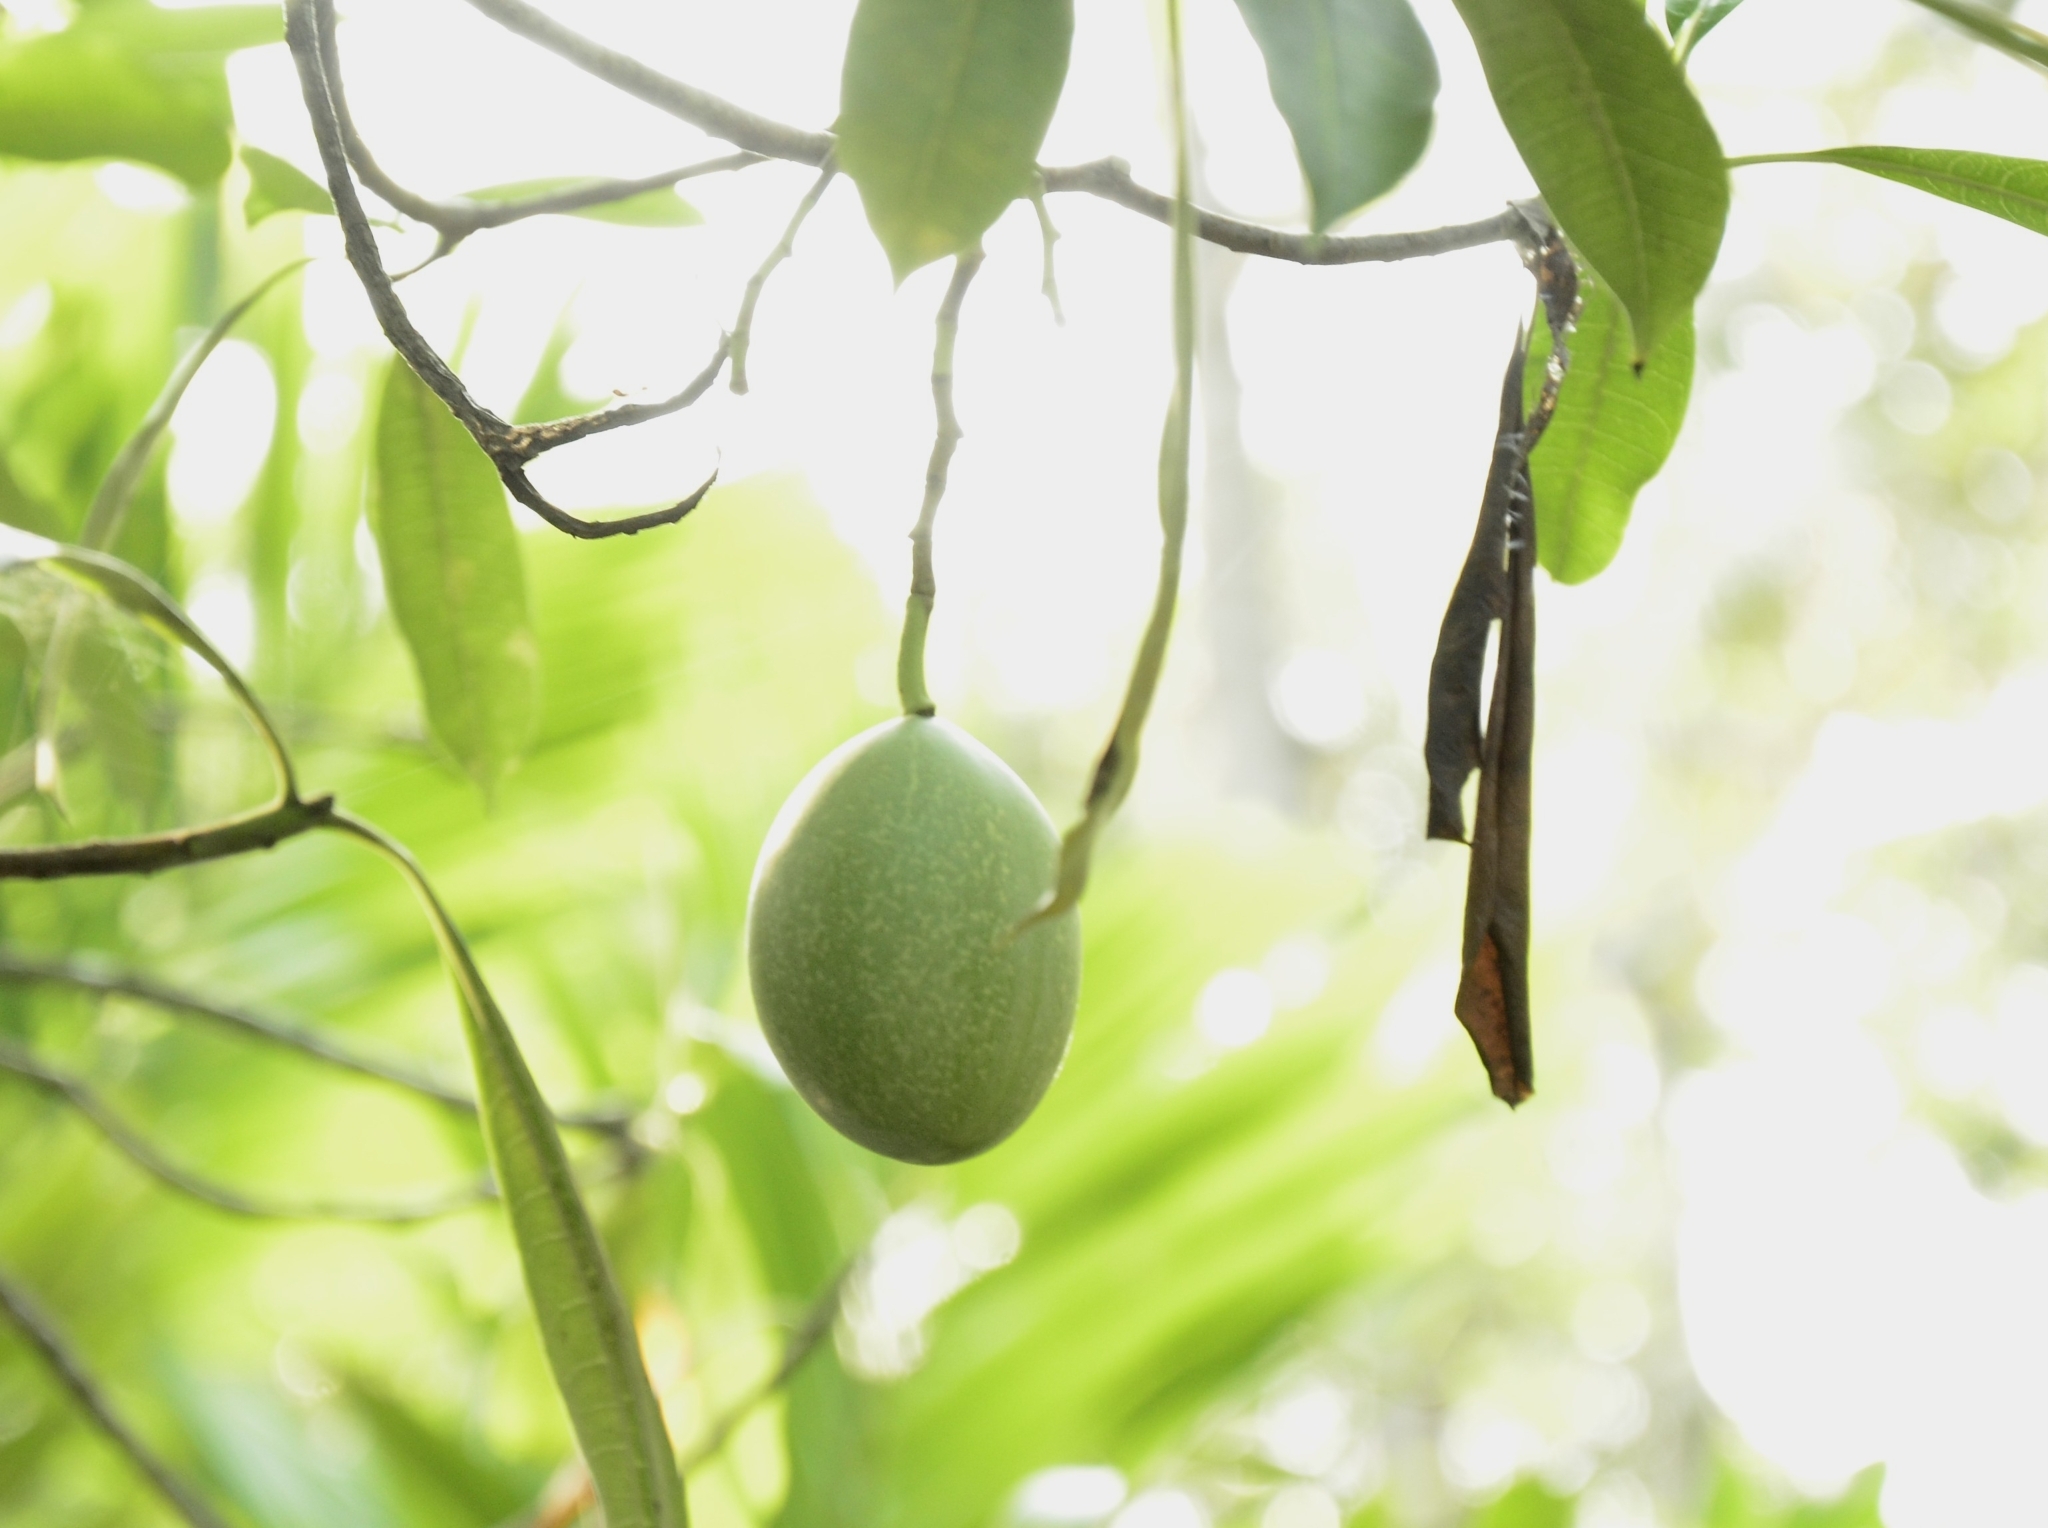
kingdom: Plantae
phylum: Tracheophyta
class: Magnoliopsida
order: Gentianales
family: Apocynaceae
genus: Cerbera
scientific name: Cerbera odollam
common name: Pong-pong
